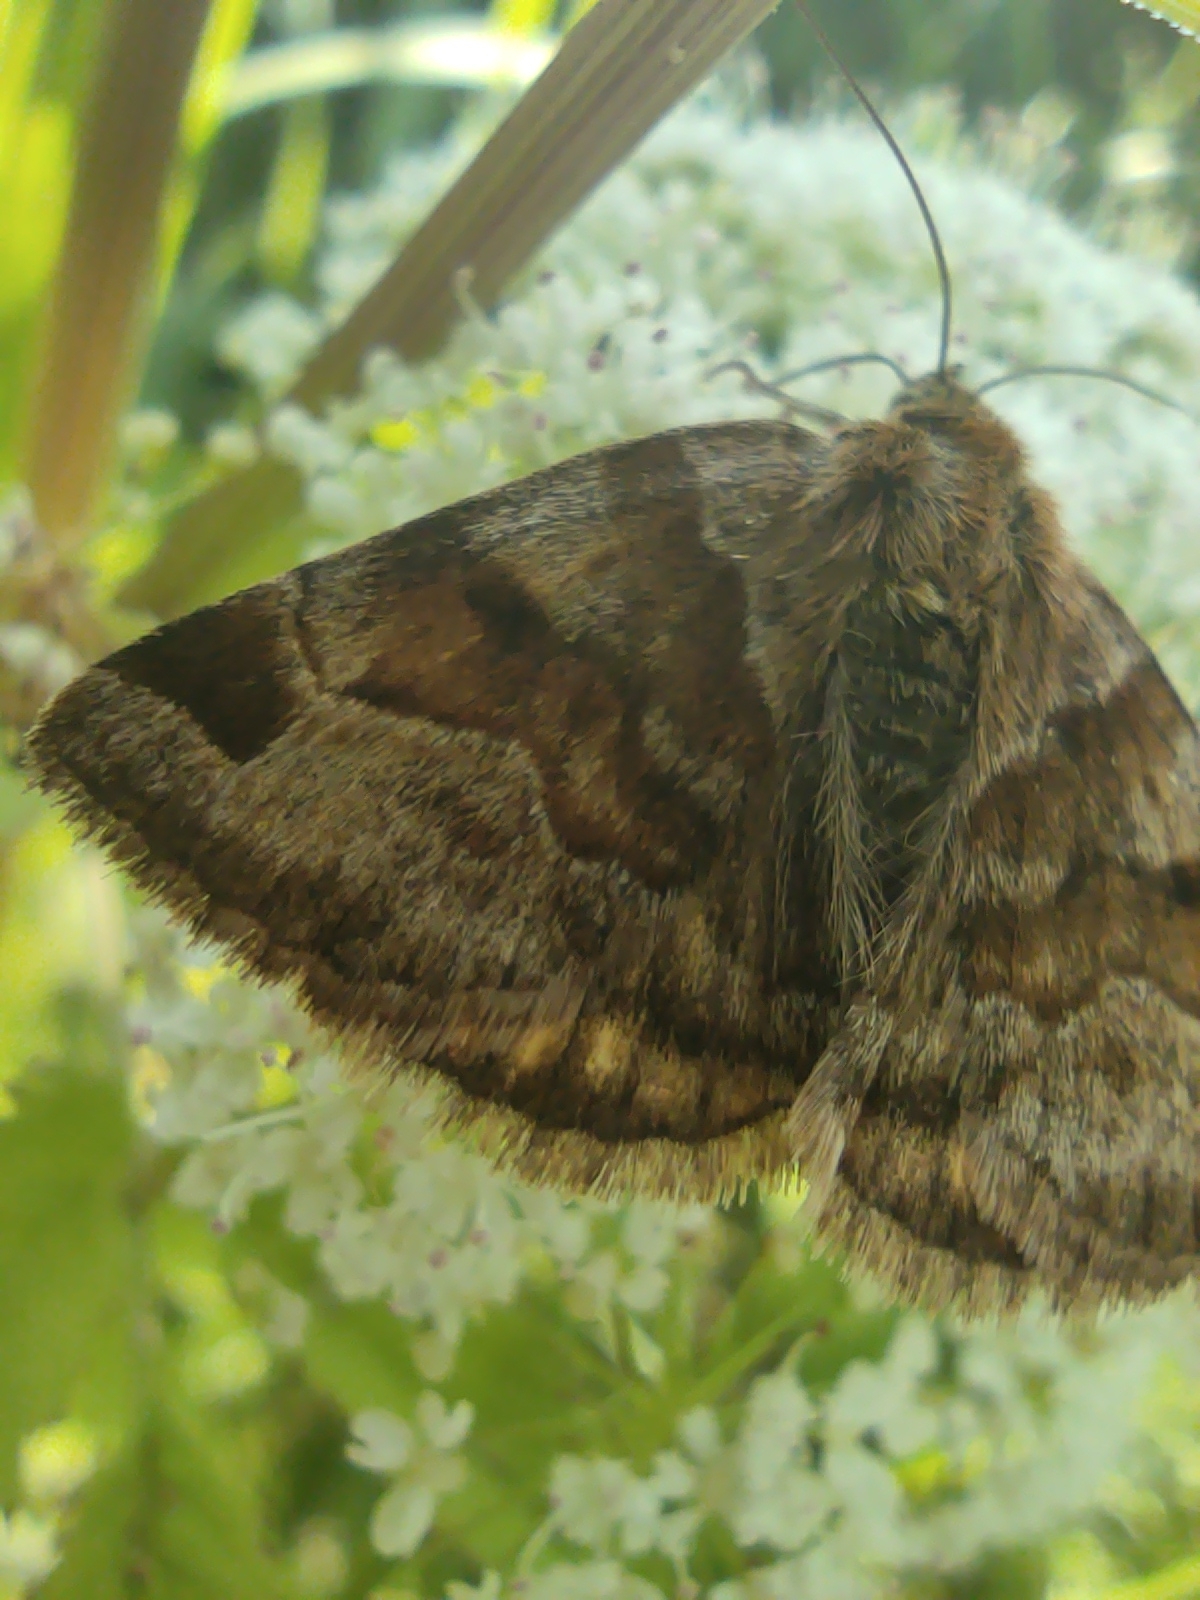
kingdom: Animalia
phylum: Arthropoda
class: Insecta
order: Lepidoptera
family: Erebidae
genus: Euclidia
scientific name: Euclidia glyphica
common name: Burnet companion
